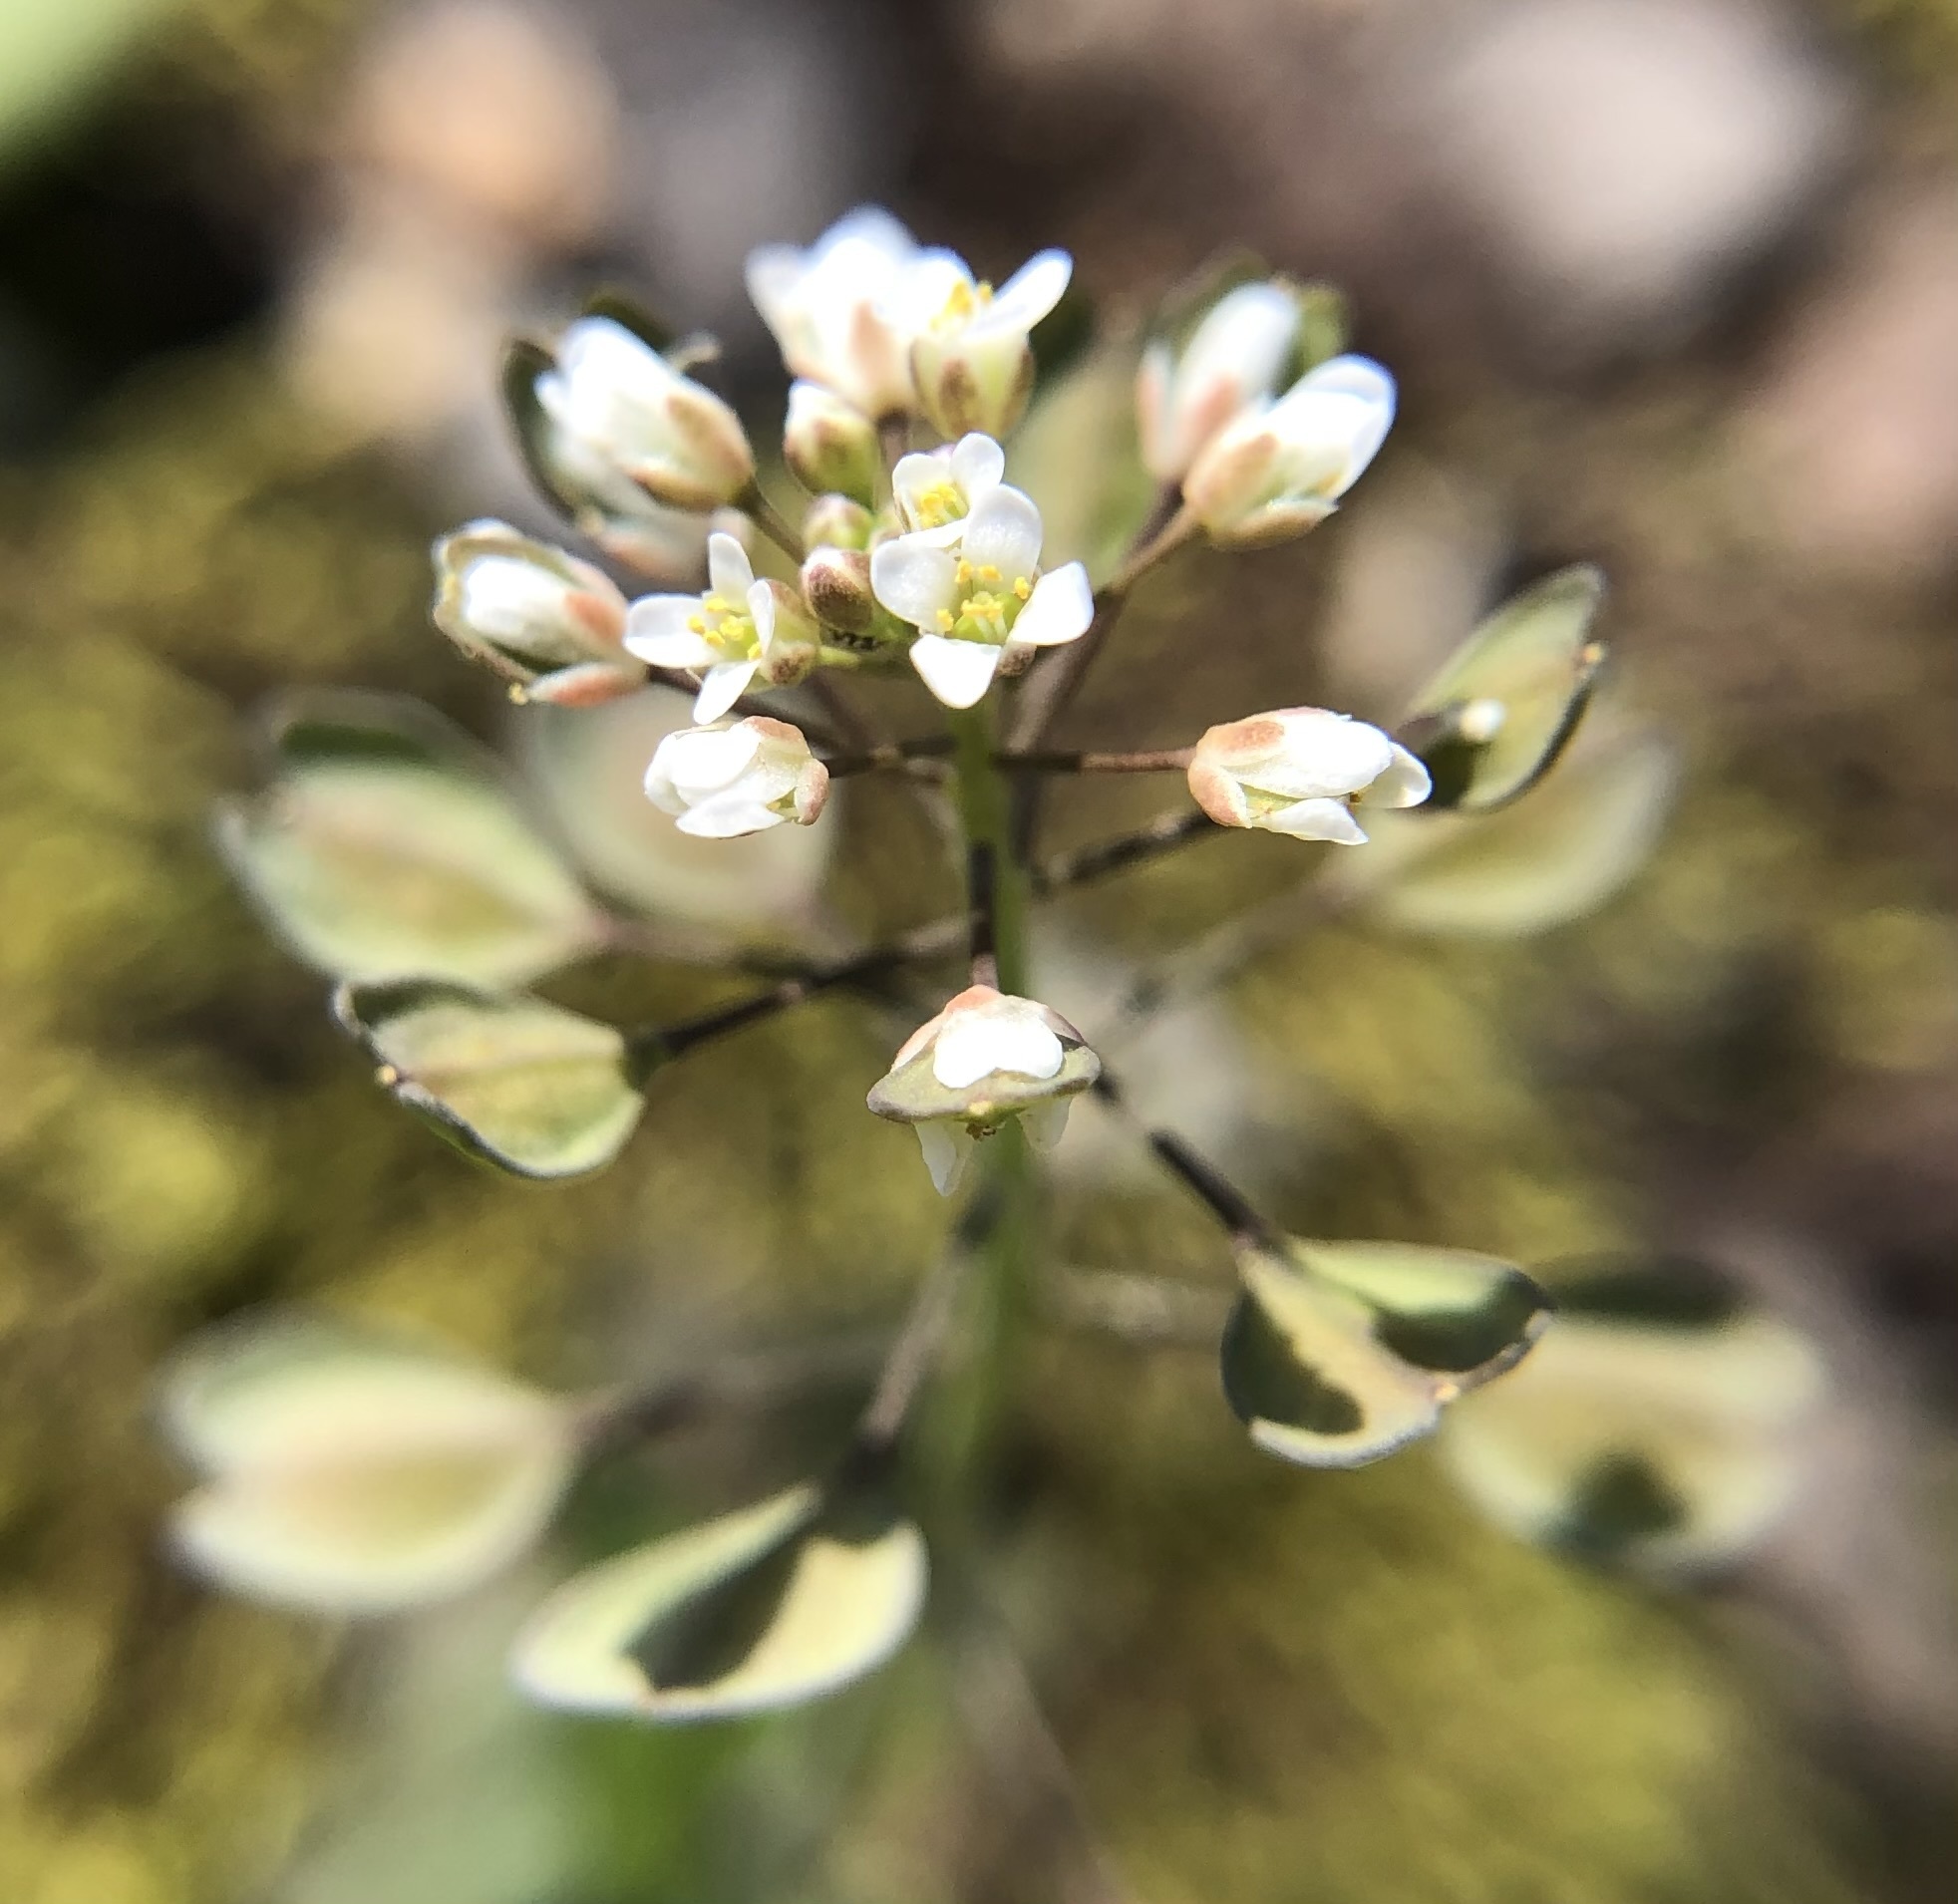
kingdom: Plantae
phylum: Tracheophyta
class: Magnoliopsida
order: Brassicales
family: Brassicaceae
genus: Noccaea
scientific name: Noccaea perfoliata
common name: Perfoliate pennycress
